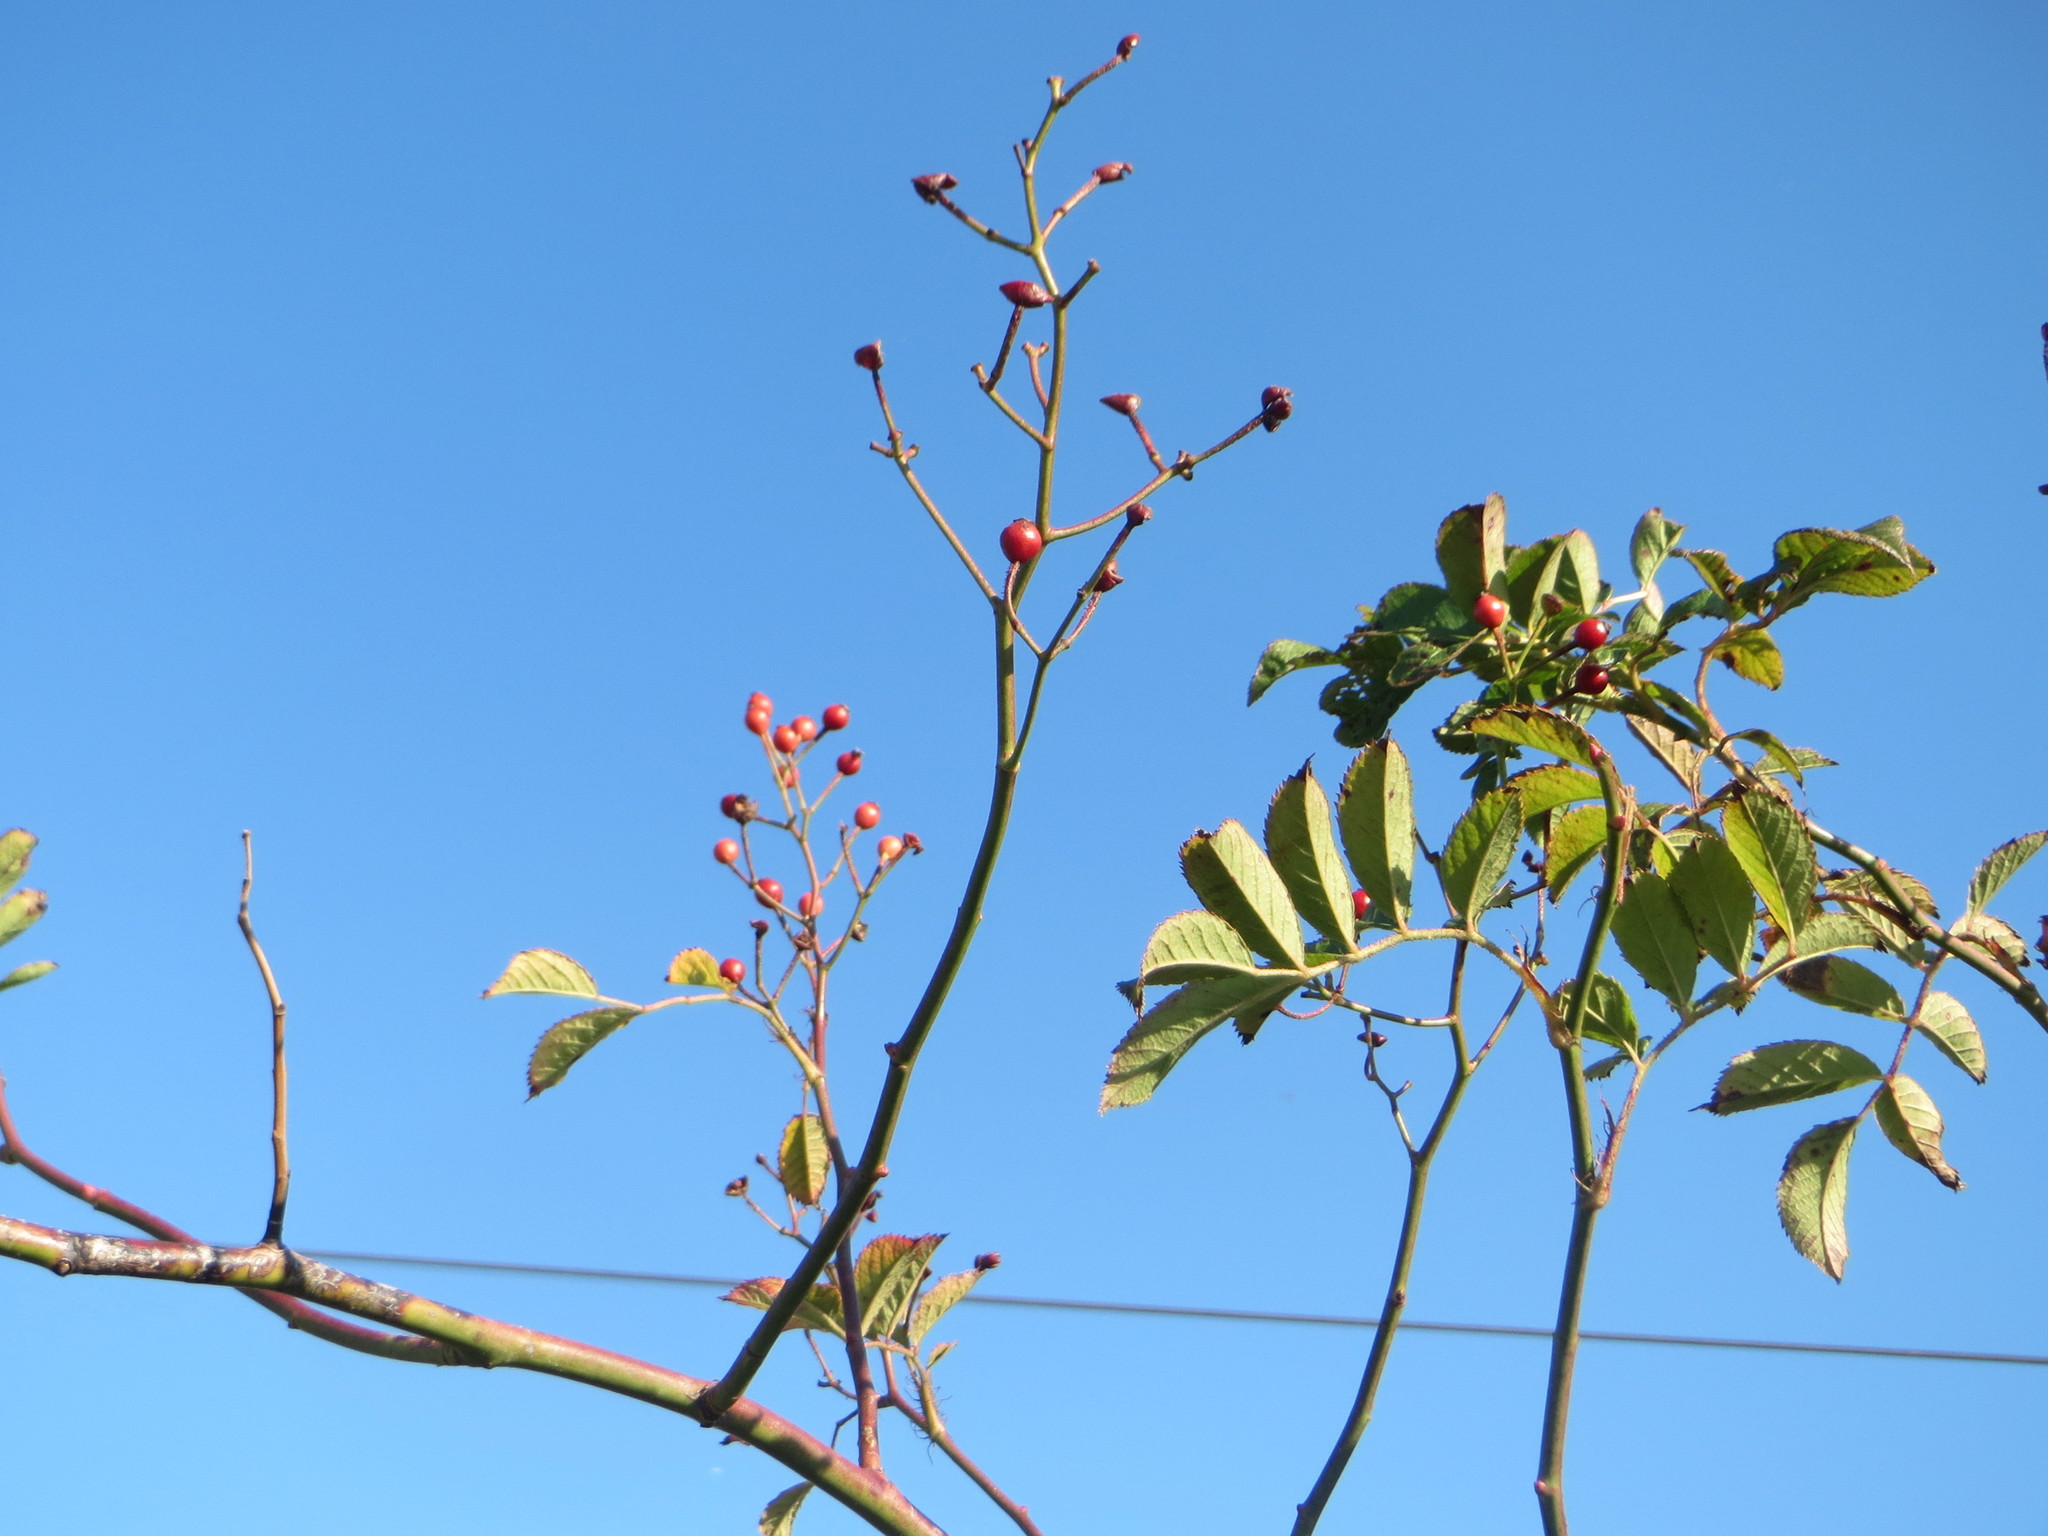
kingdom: Plantae
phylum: Tracheophyta
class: Magnoliopsida
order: Rosales
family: Rosaceae
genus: Rosa
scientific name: Rosa multiflora
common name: Multiflora rose
